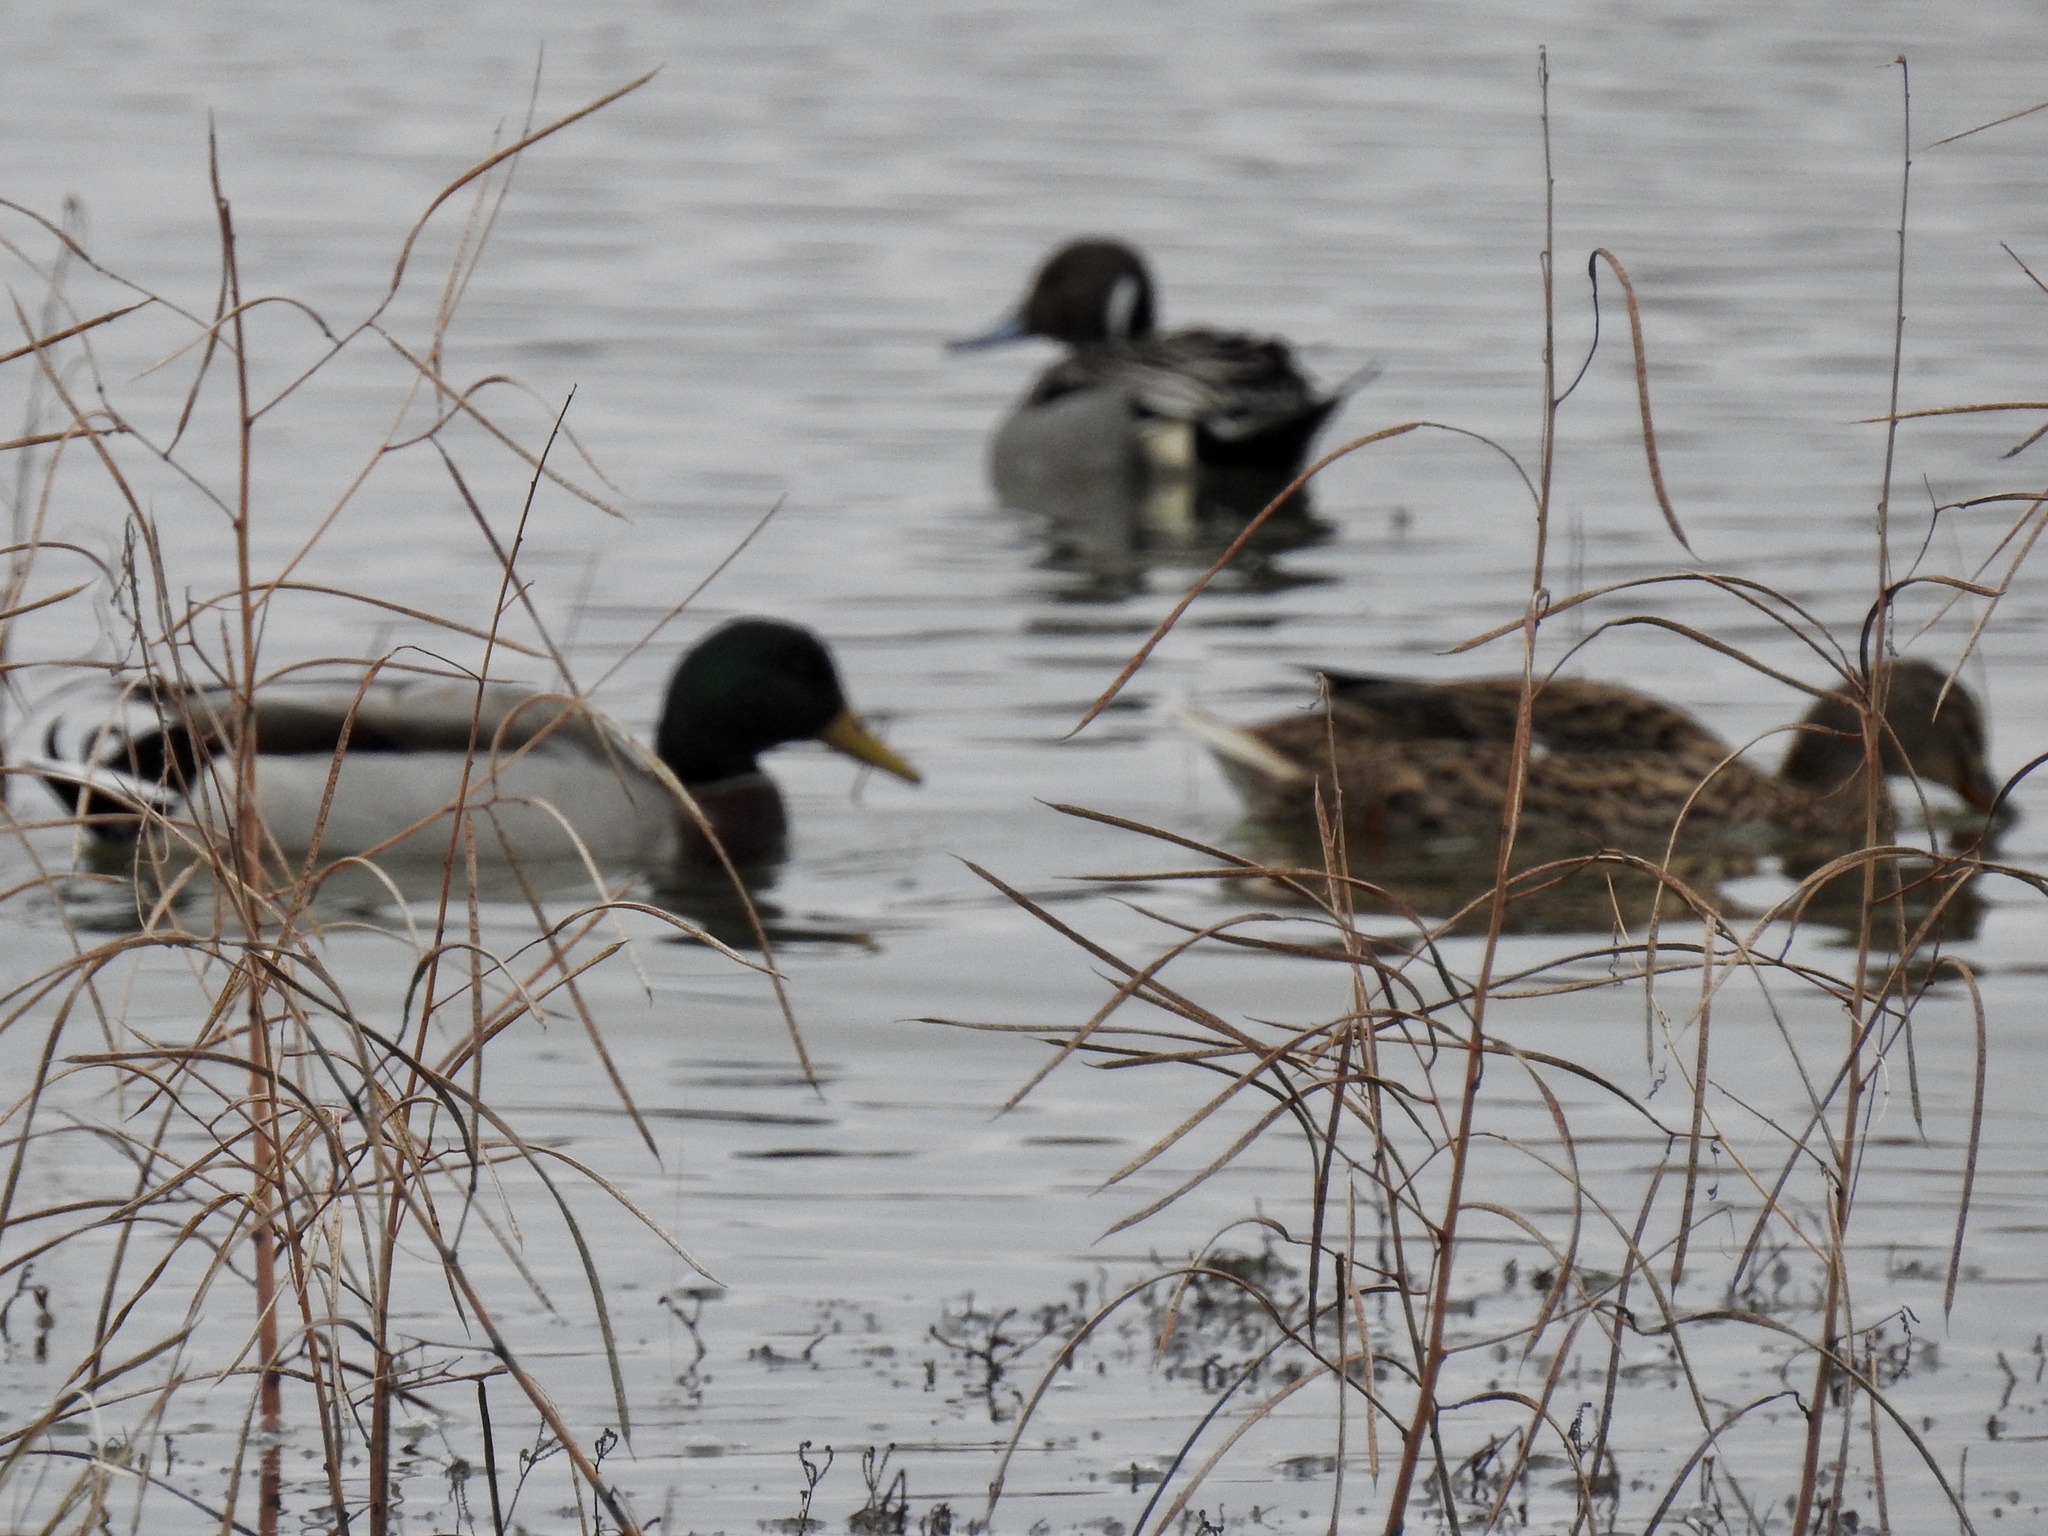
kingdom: Animalia
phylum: Chordata
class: Aves
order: Anseriformes
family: Anatidae
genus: Anas
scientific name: Anas platyrhynchos
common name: Mallard
